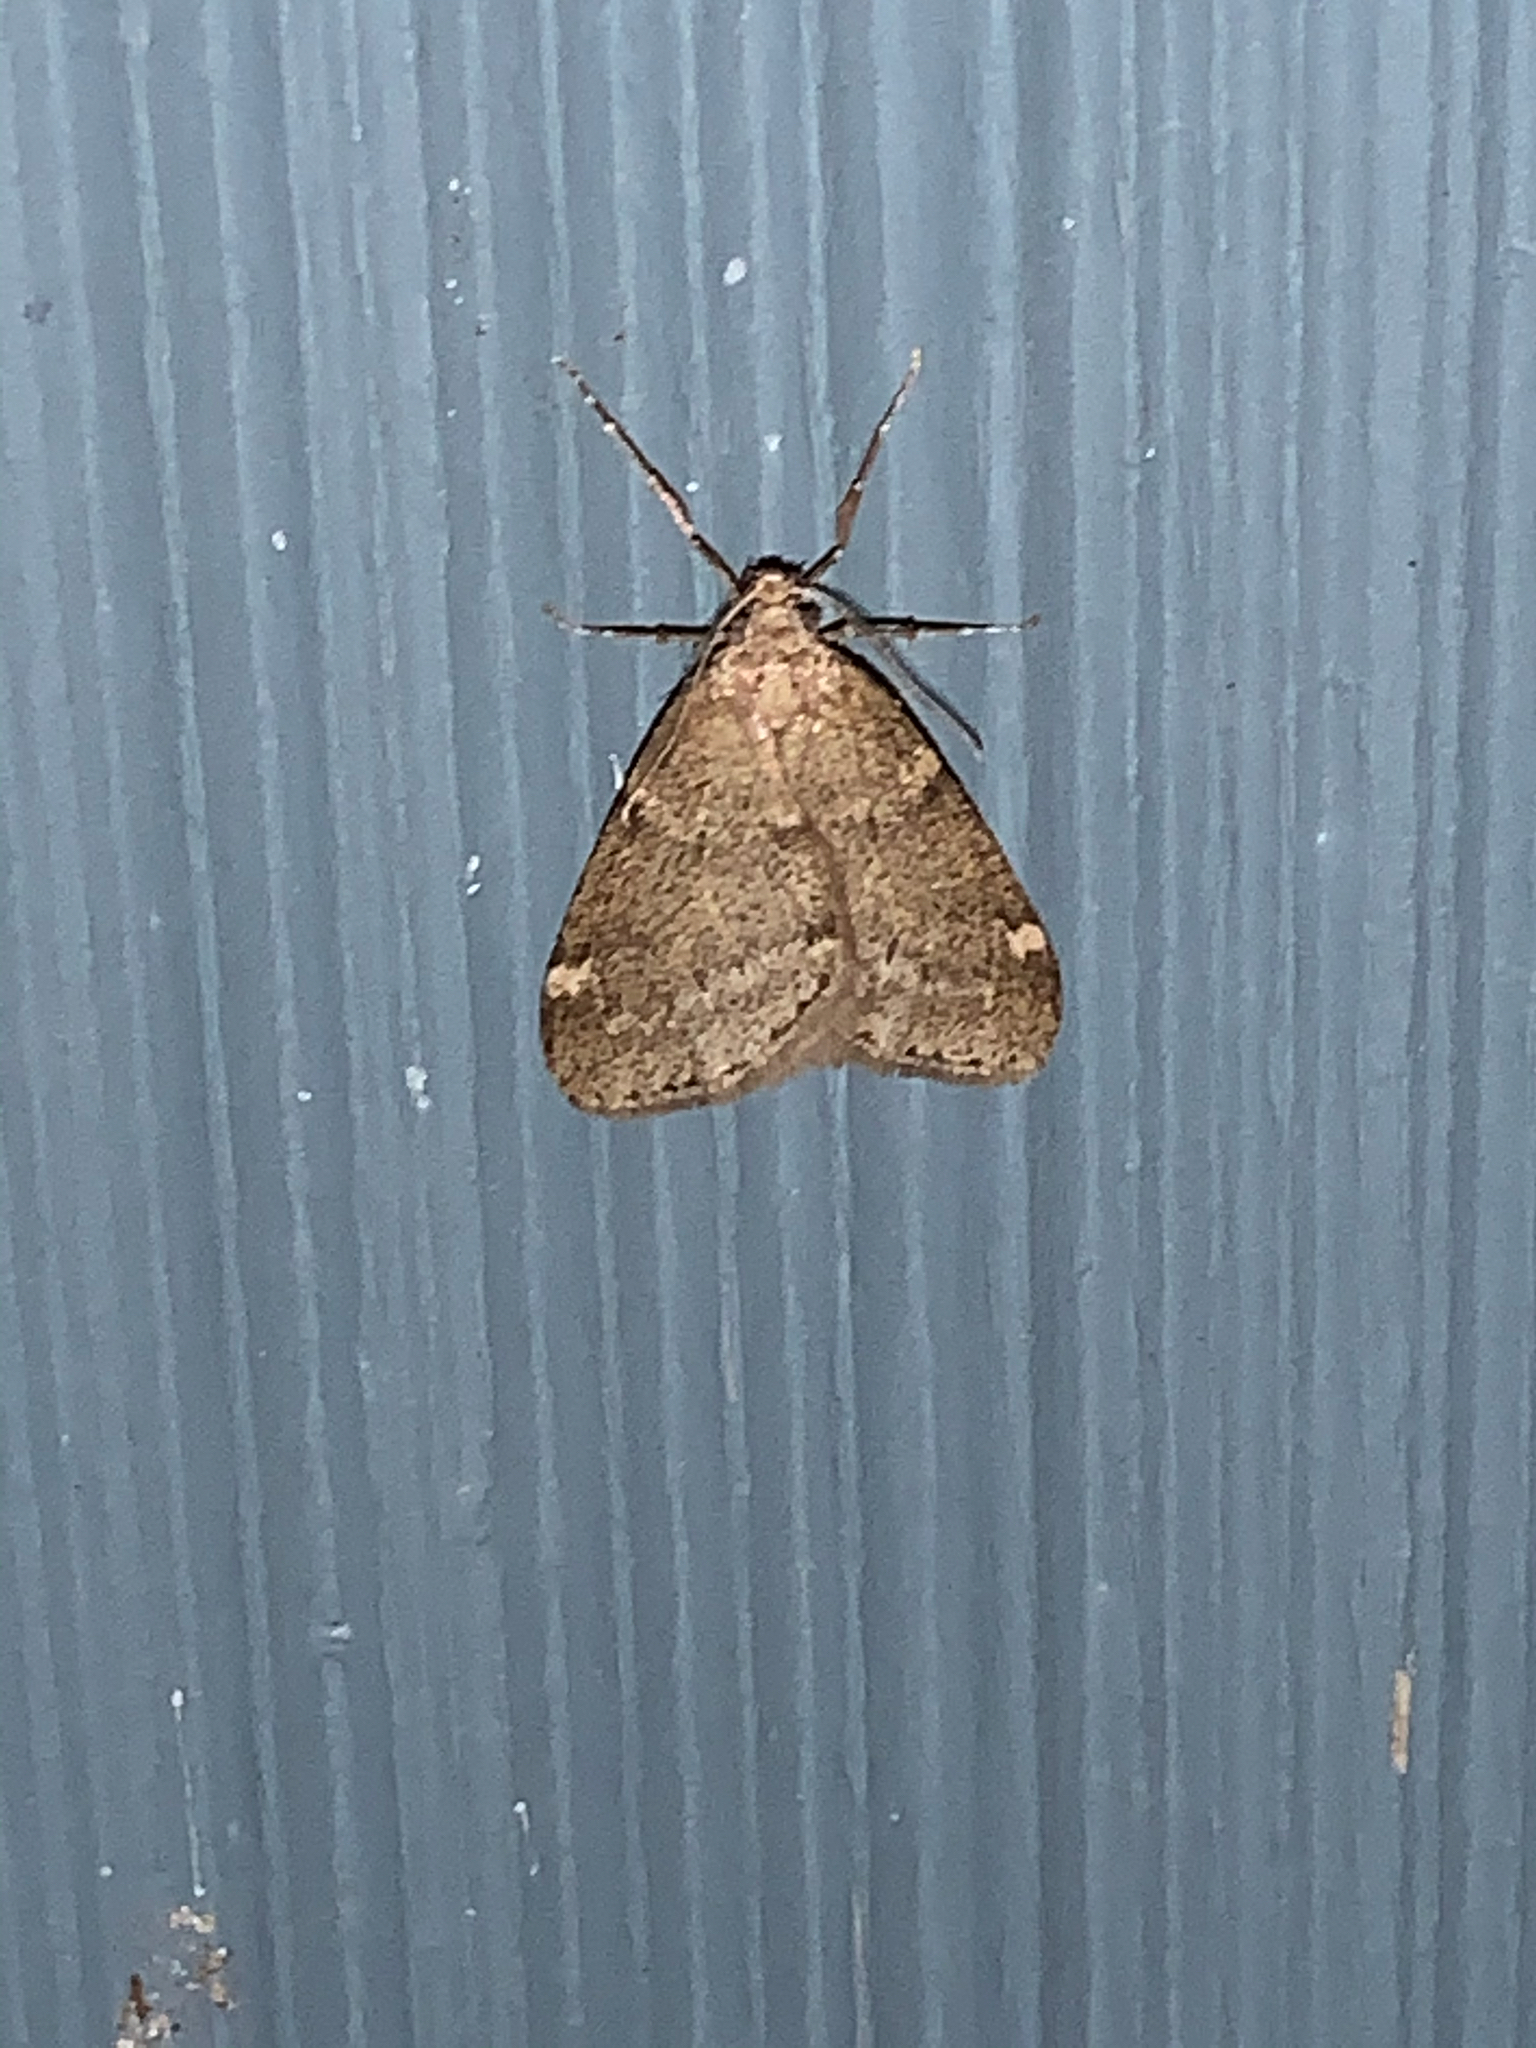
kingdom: Animalia
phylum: Arthropoda
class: Insecta
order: Lepidoptera
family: Geometridae
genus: Alsophila
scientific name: Alsophila pometaria
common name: Fall cankerworm
